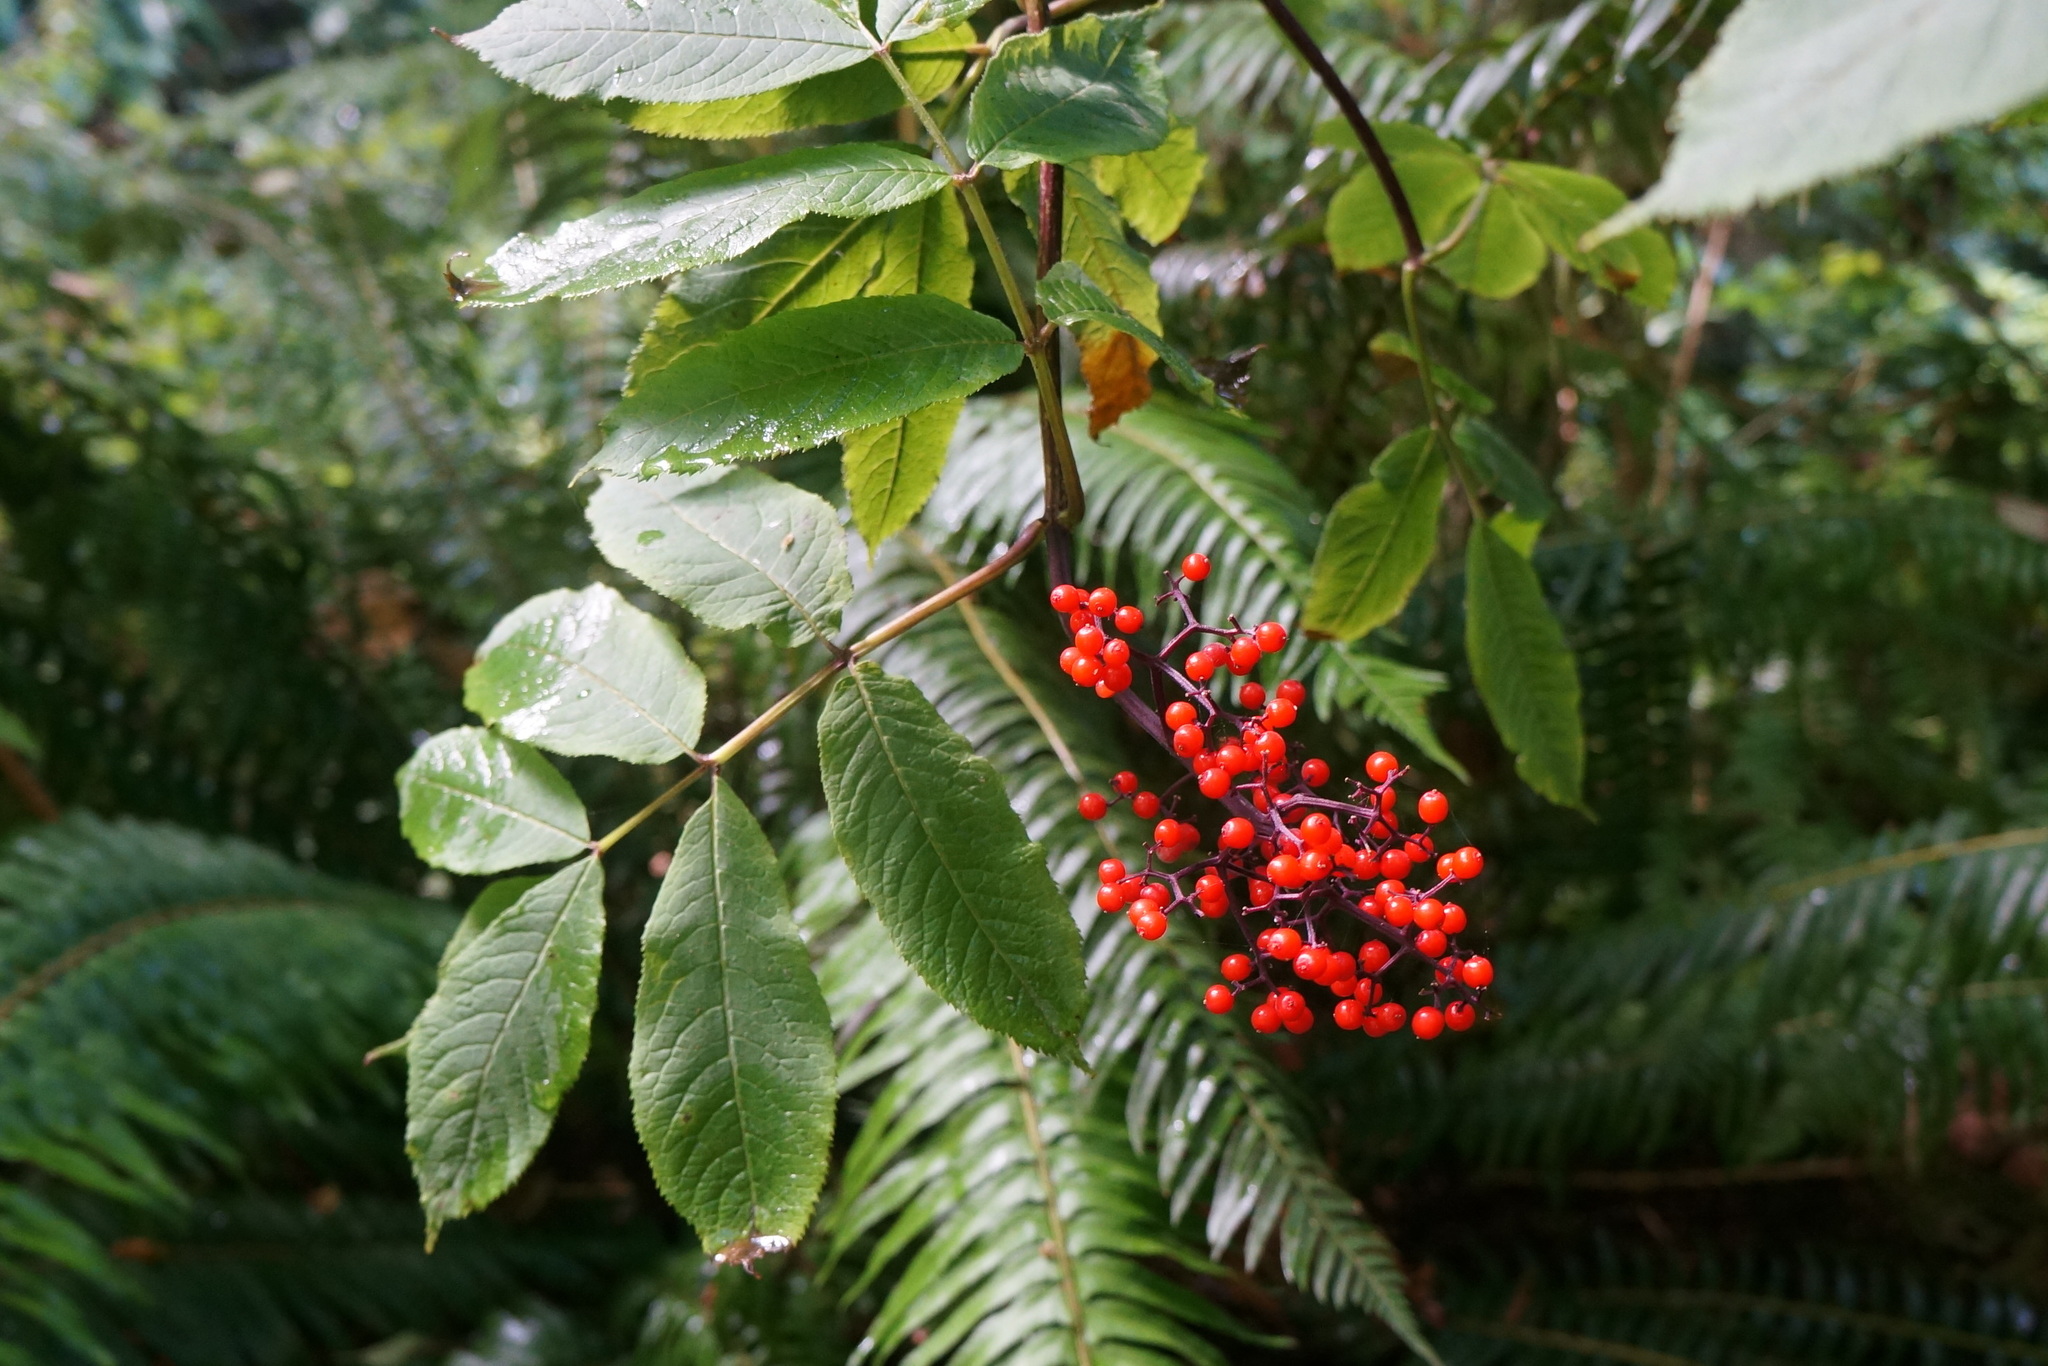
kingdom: Plantae
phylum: Tracheophyta
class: Magnoliopsida
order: Dipsacales
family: Viburnaceae
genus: Sambucus
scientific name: Sambucus racemosa
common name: Red-berried elder
